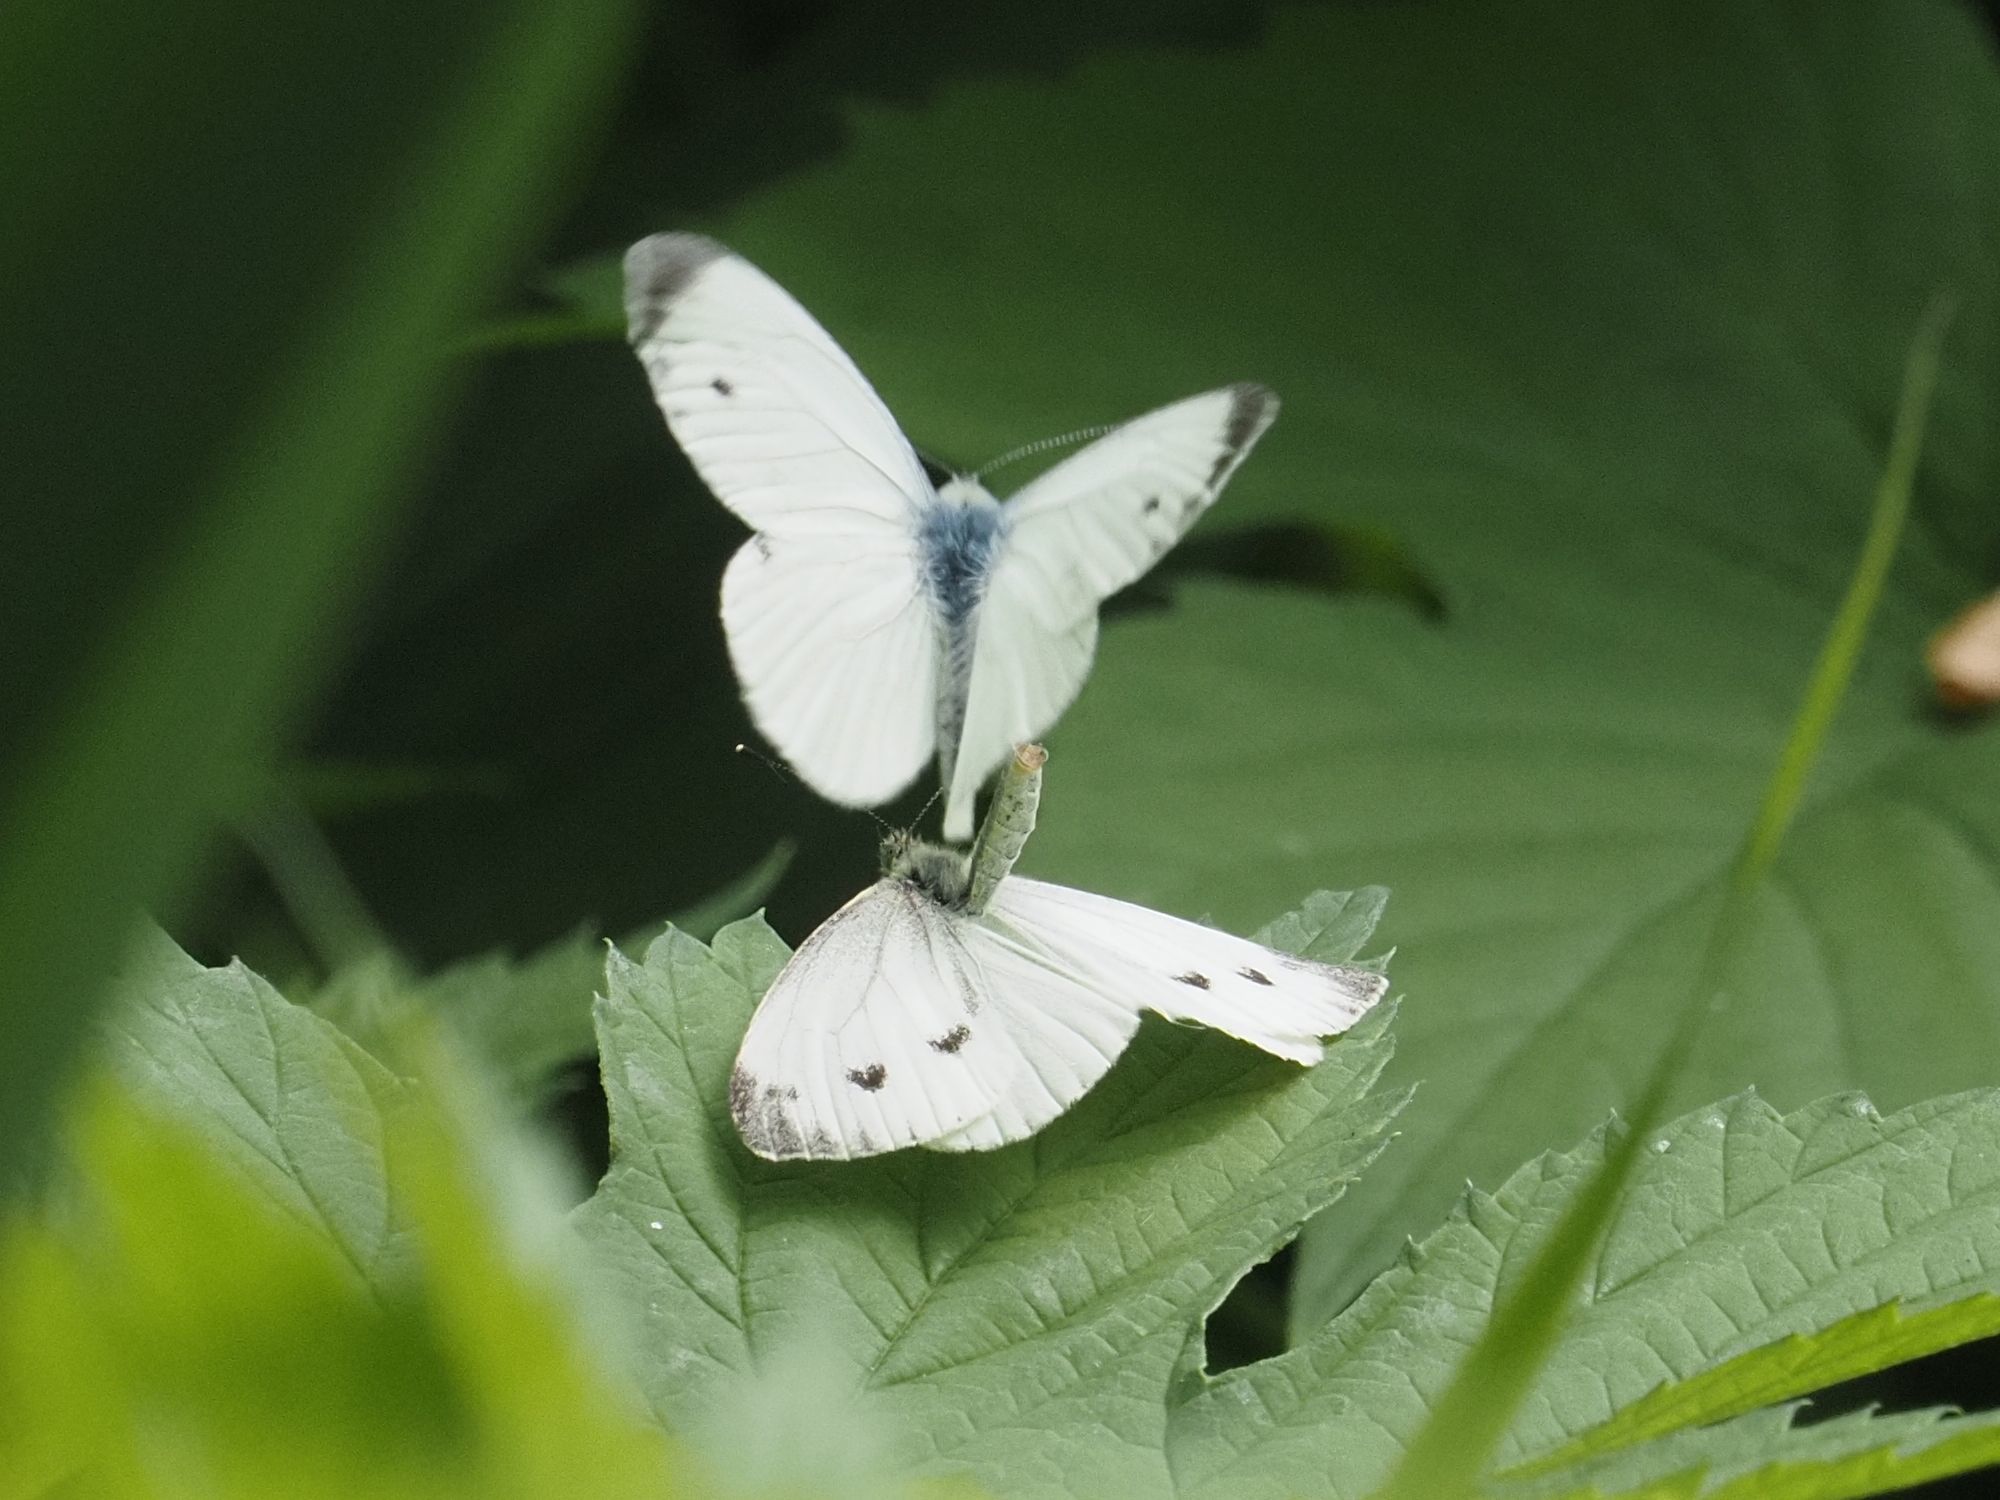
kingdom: Animalia
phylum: Arthropoda
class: Insecta
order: Lepidoptera
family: Pieridae
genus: Pieris
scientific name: Pieris napi
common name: Green-veined white
